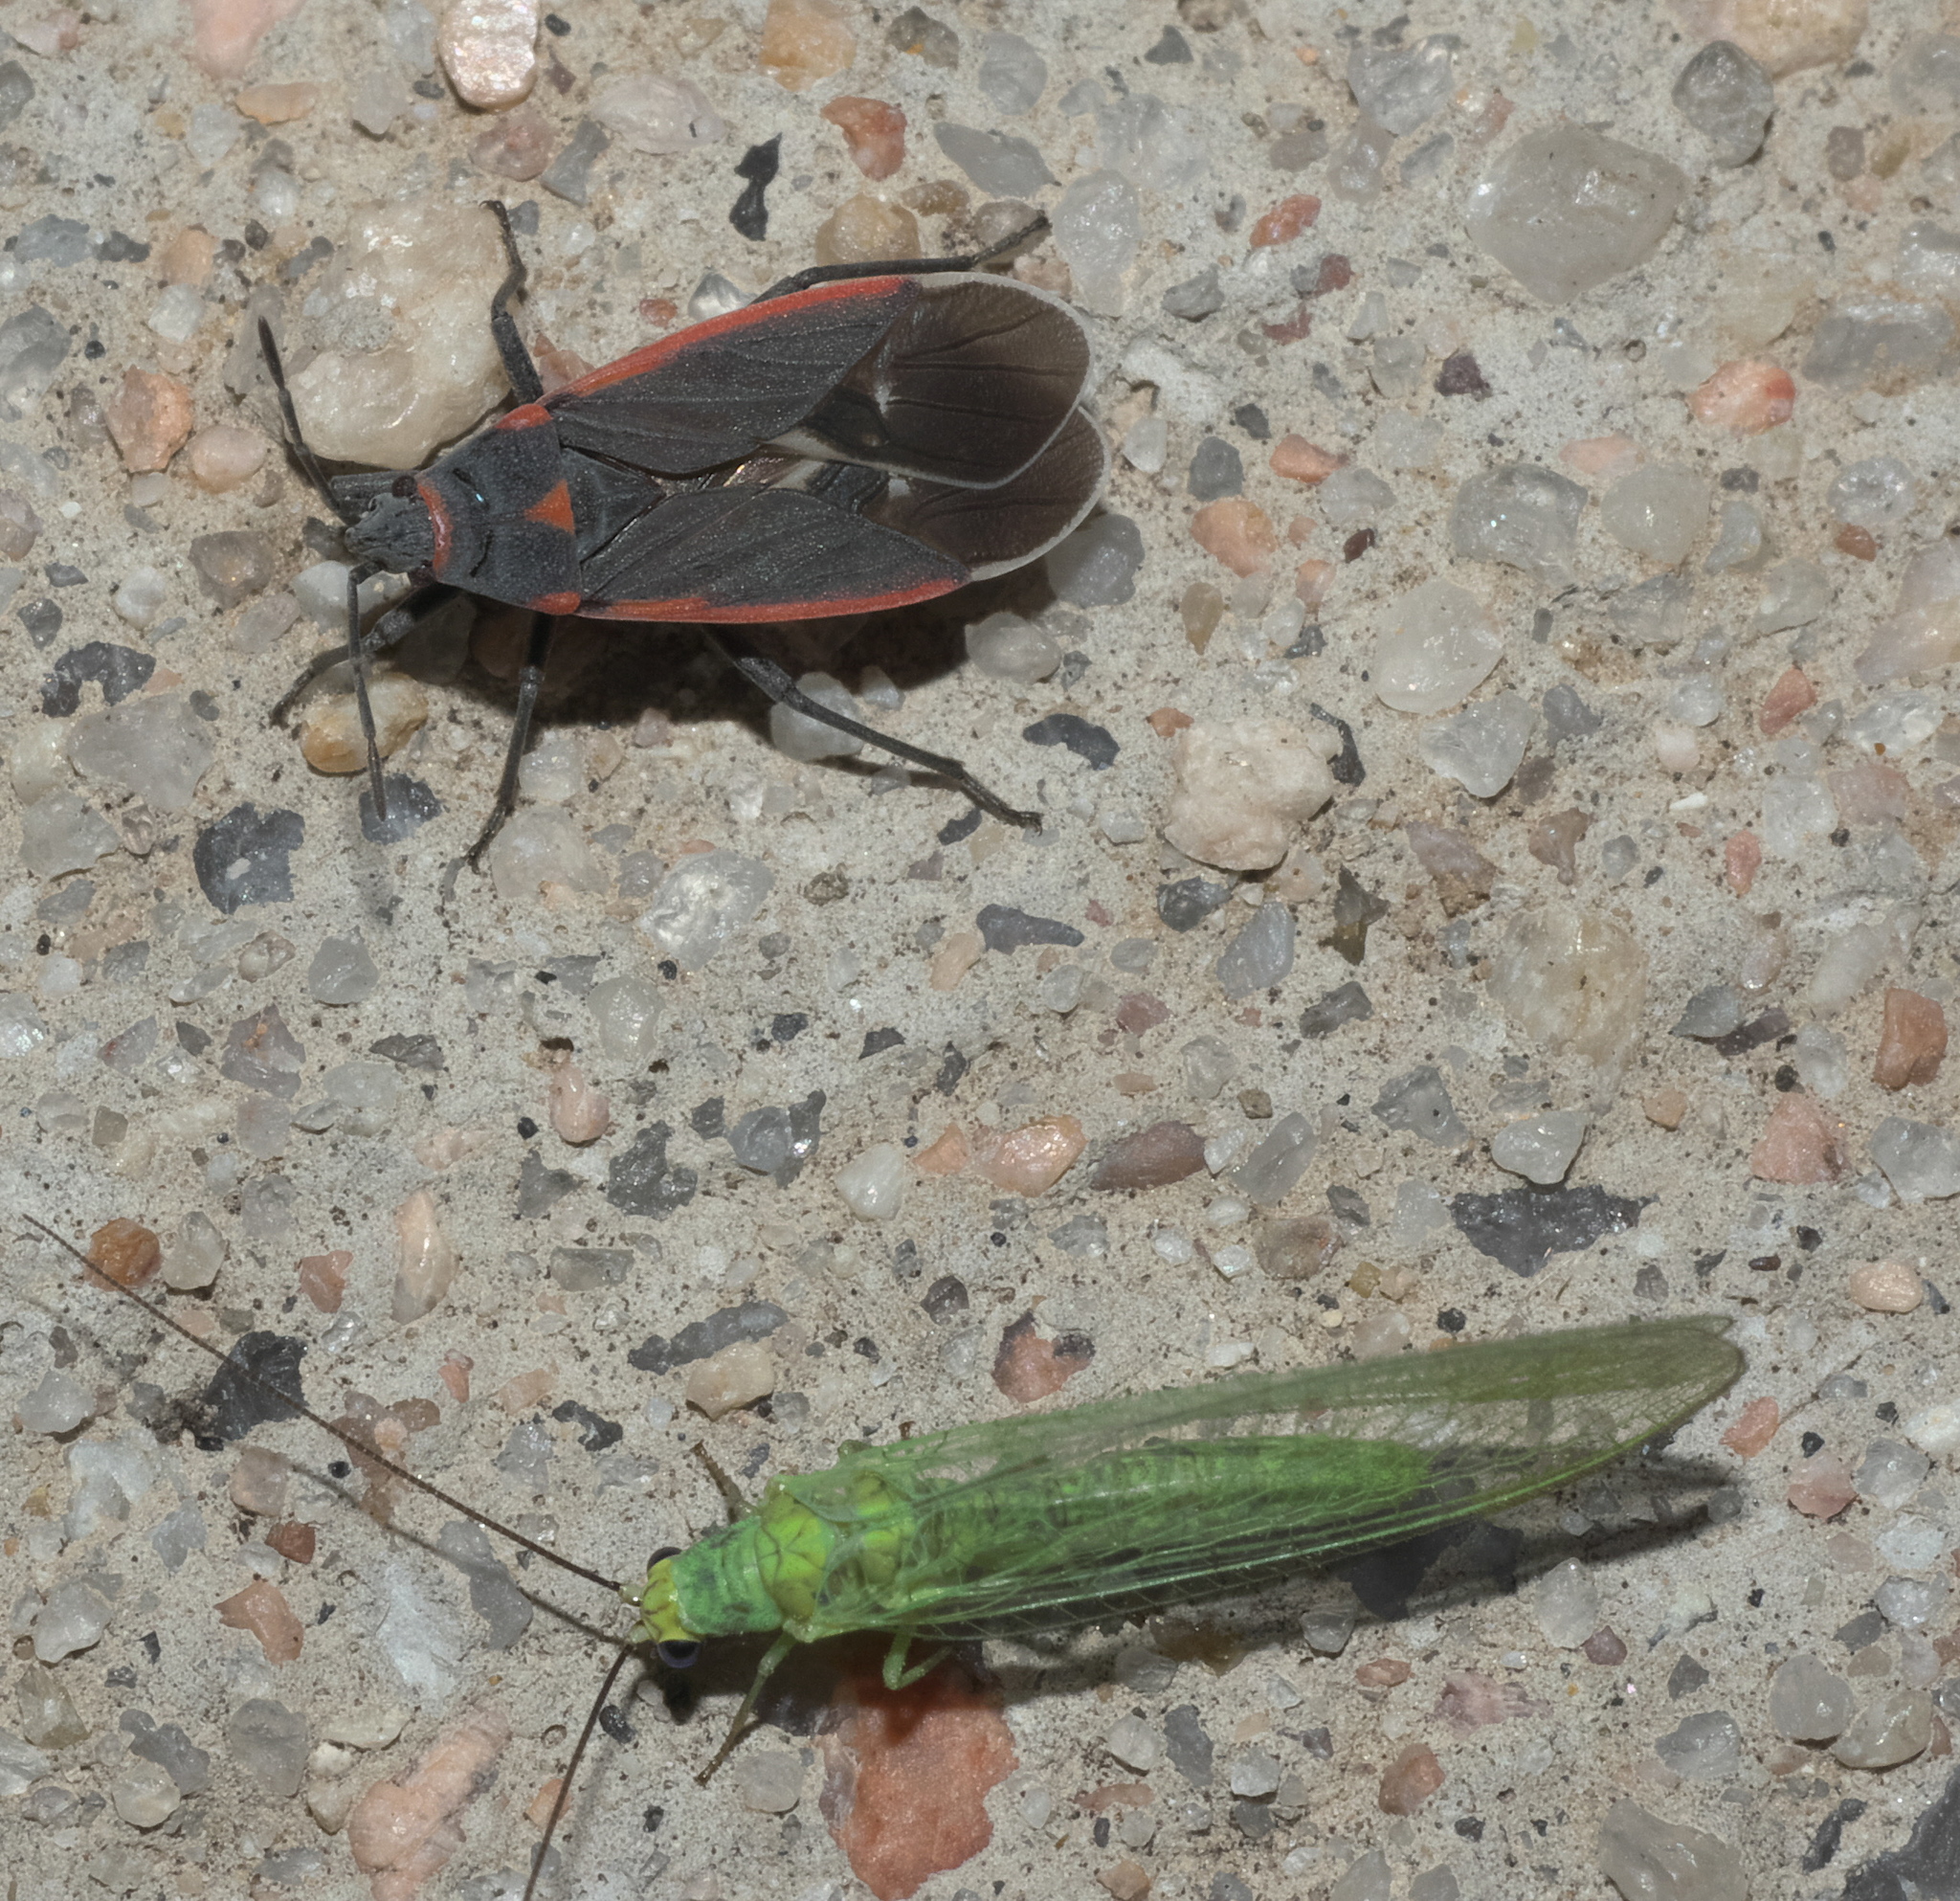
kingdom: Animalia
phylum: Arthropoda
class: Insecta
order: Hemiptera
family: Lygaeidae
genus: Melacoryphus
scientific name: Melacoryphus lateralis
